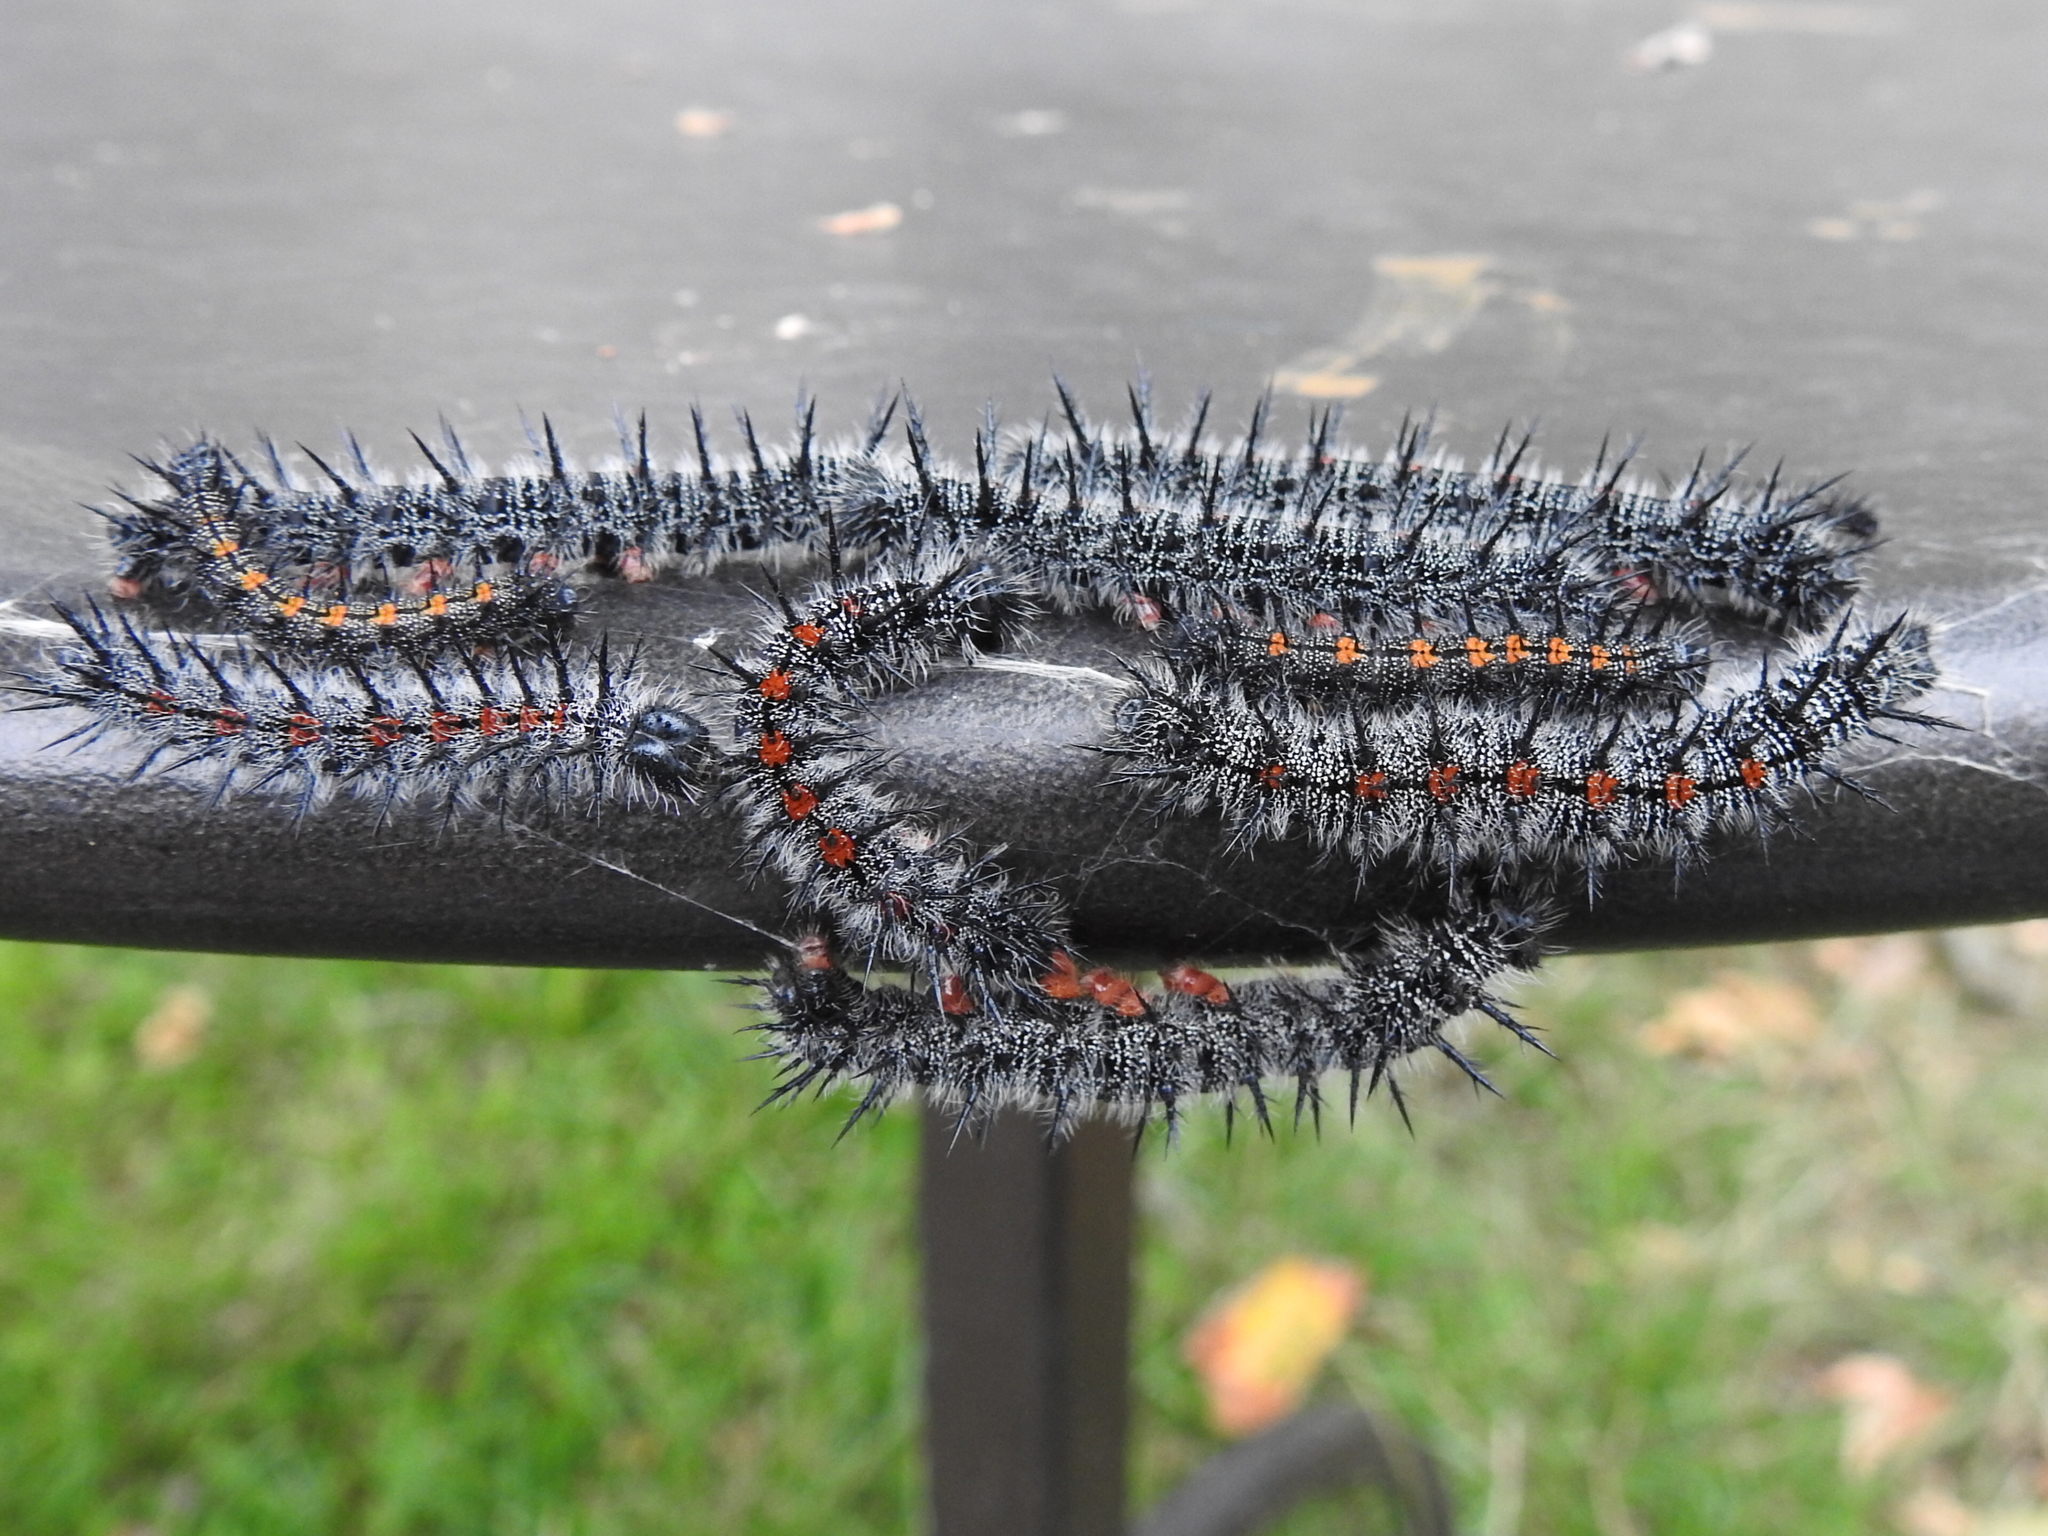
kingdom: Animalia
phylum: Arthropoda
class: Insecta
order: Lepidoptera
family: Nymphalidae
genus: Nymphalis
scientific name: Nymphalis antiopa
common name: Camberwell beauty
